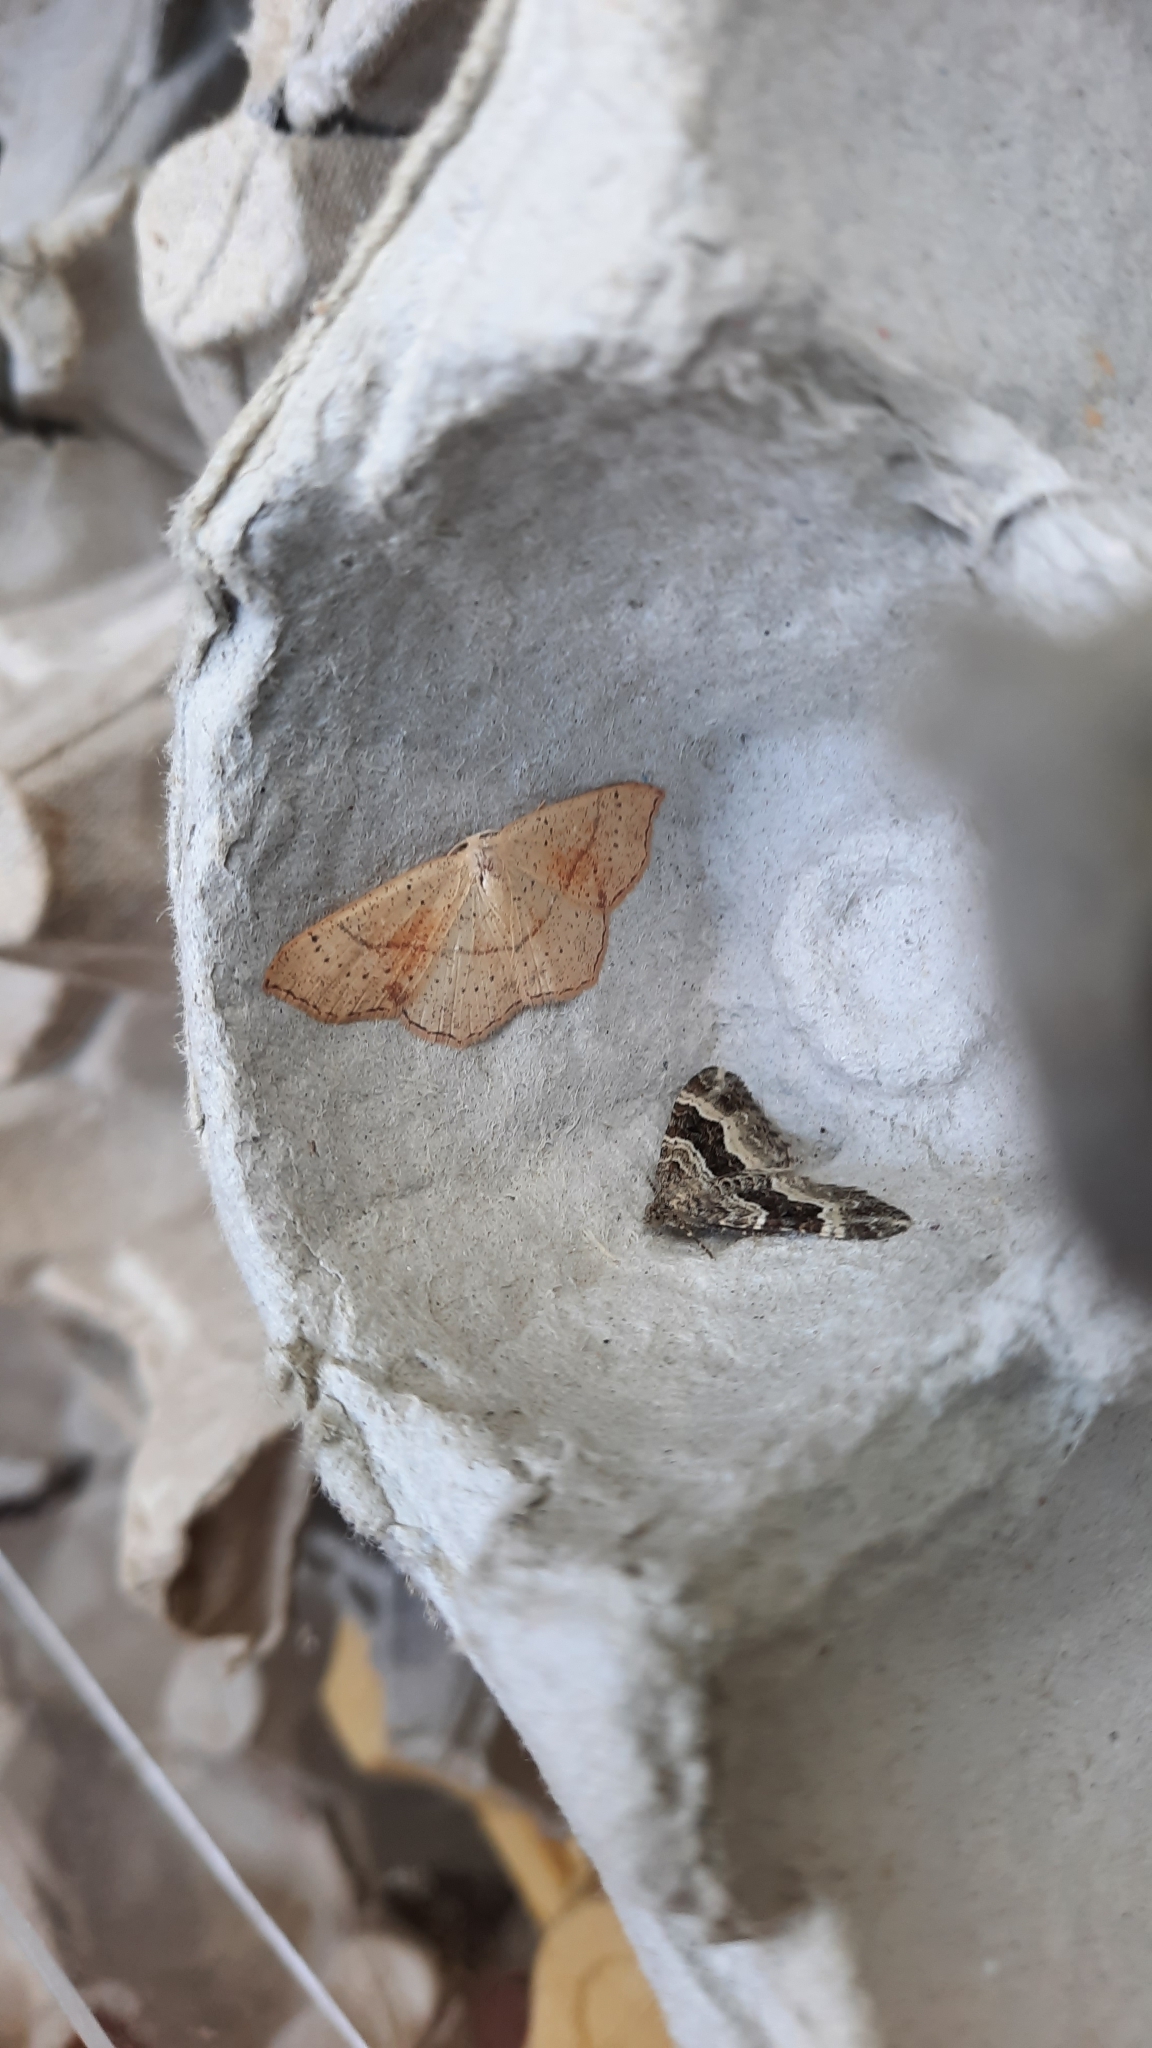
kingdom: Animalia
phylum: Arthropoda
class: Insecta
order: Lepidoptera
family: Geometridae
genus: Cyclophora
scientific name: Cyclophora punctaria
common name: Maiden's blush
